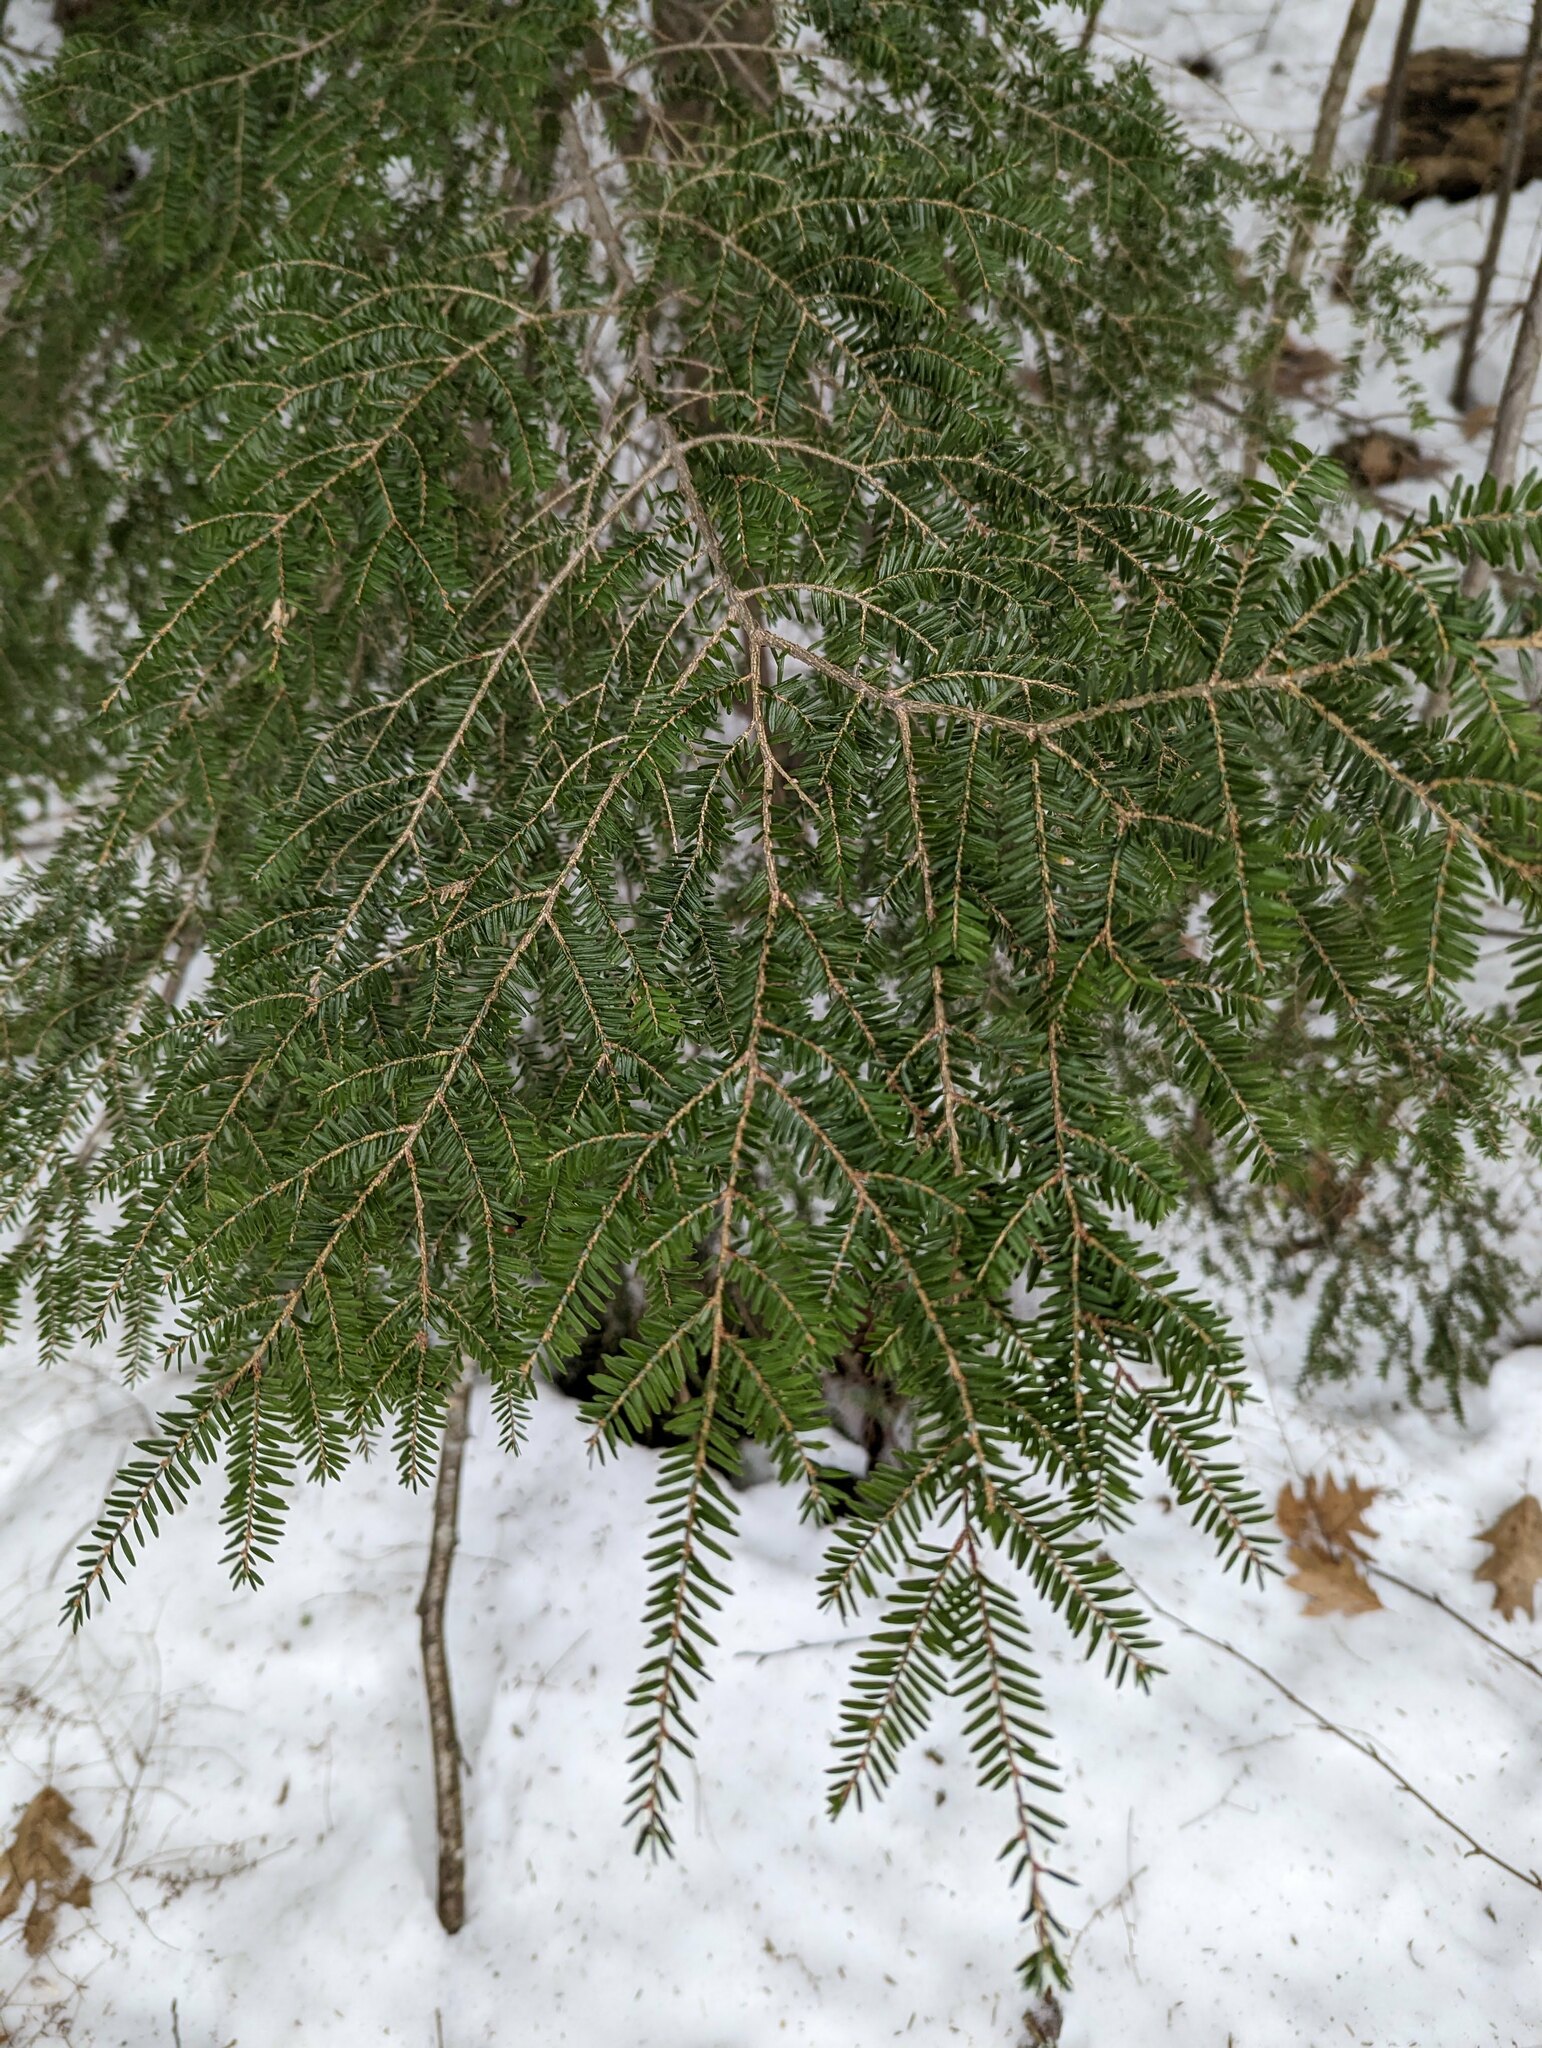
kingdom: Plantae
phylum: Tracheophyta
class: Pinopsida
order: Pinales
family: Pinaceae
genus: Tsuga
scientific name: Tsuga canadensis
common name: Eastern hemlock
